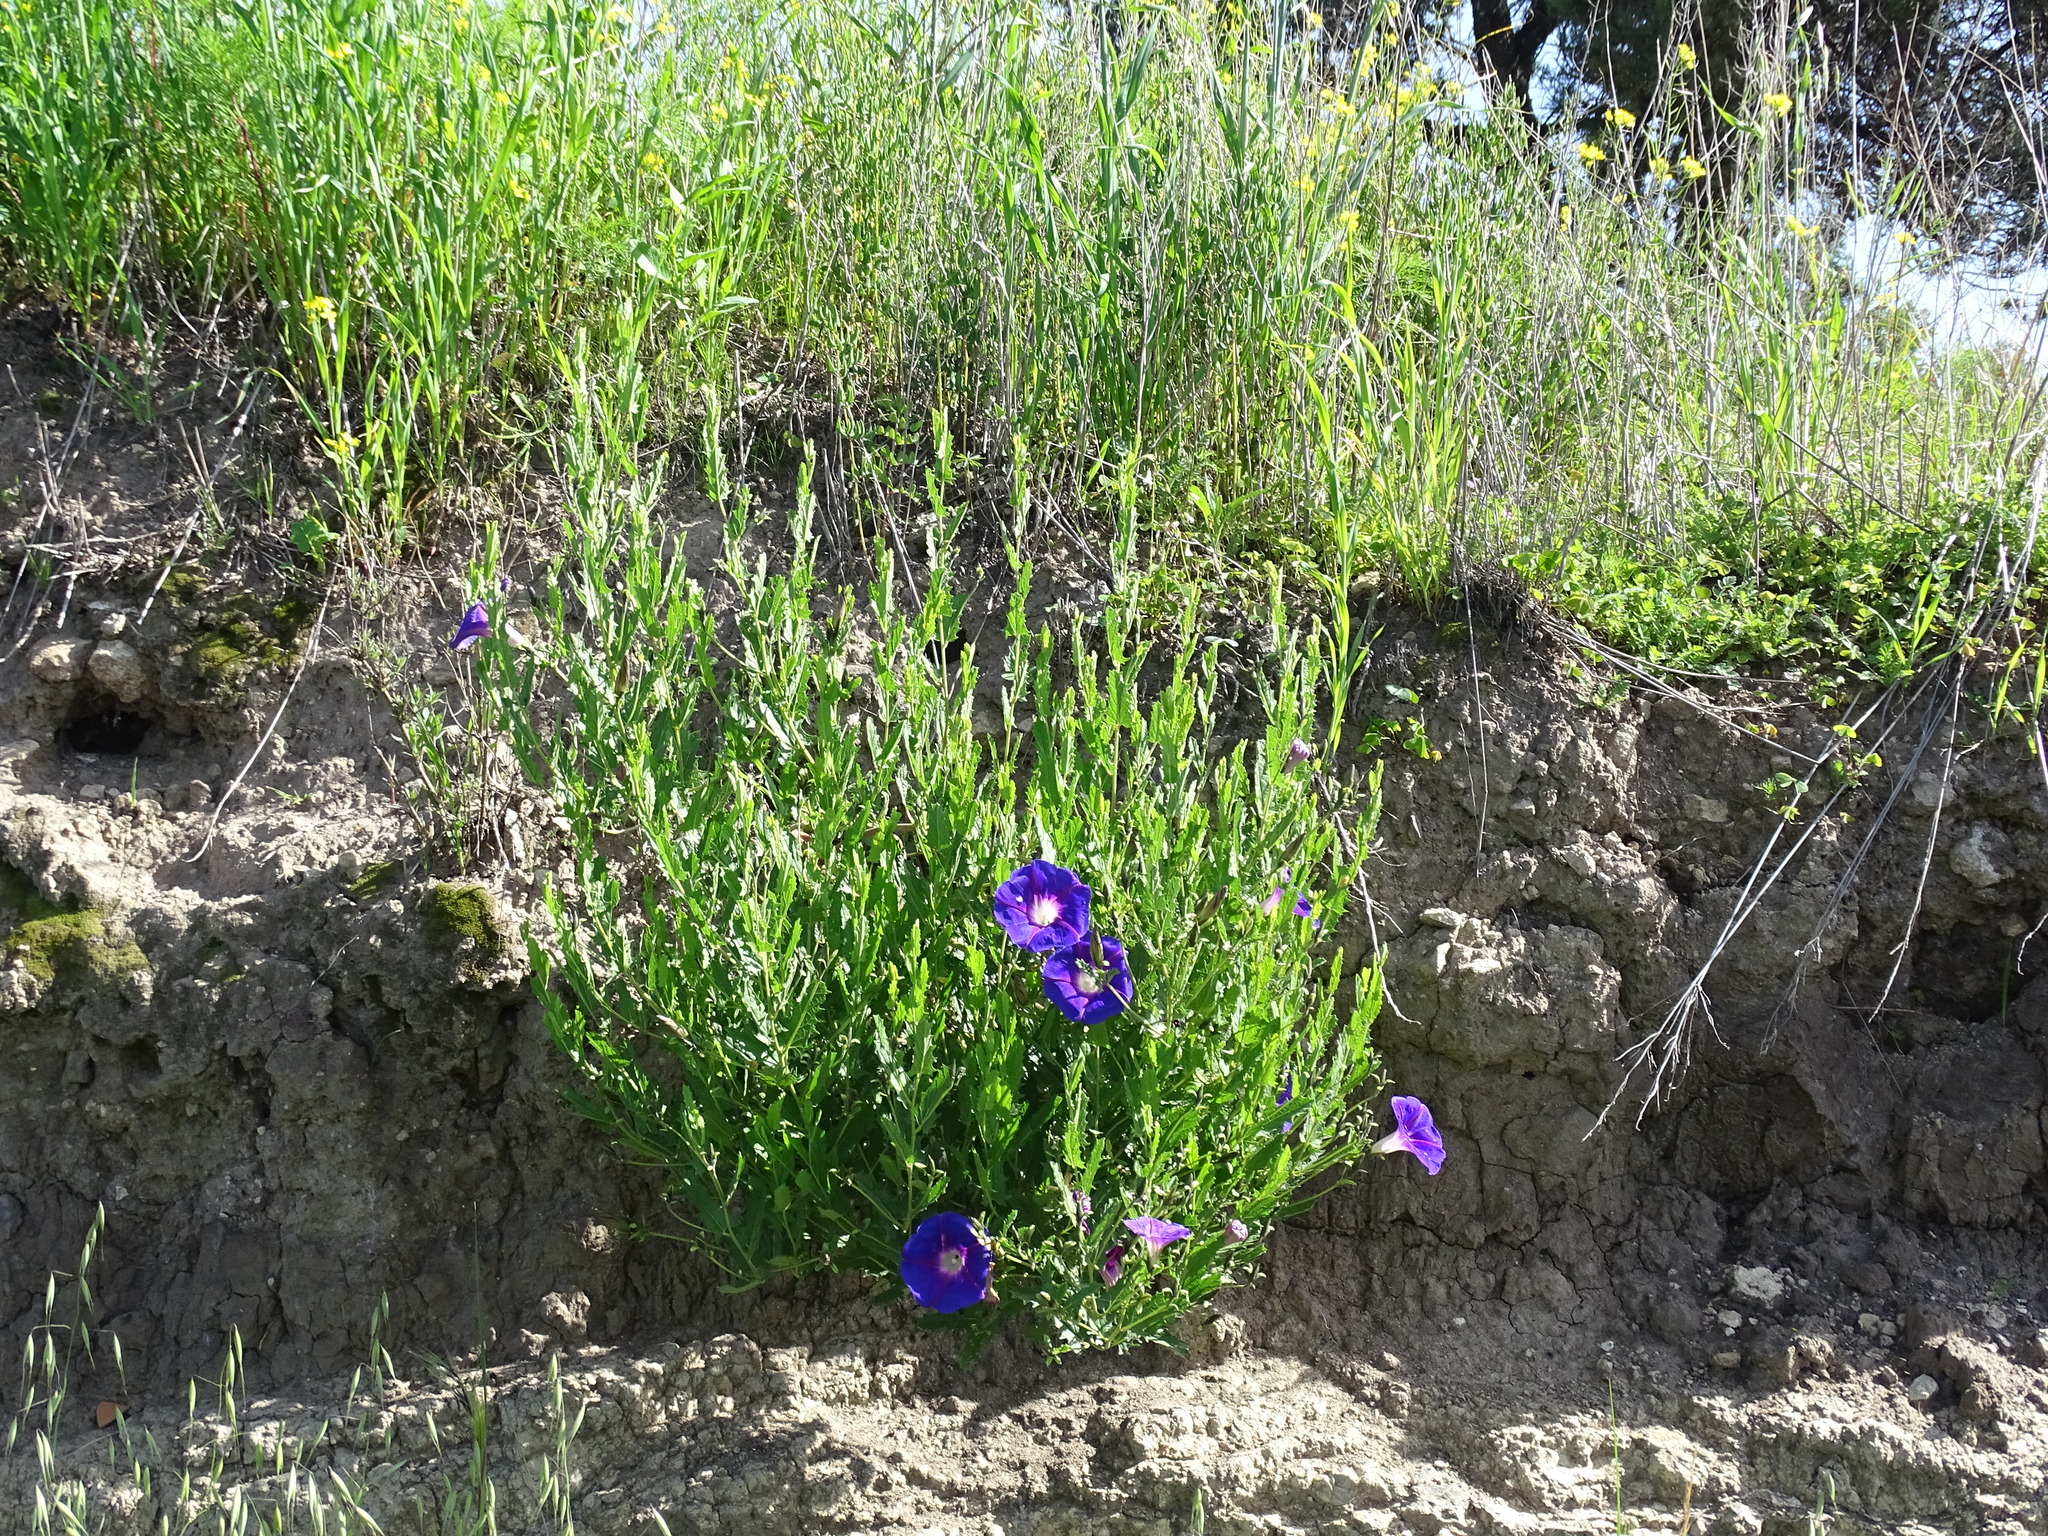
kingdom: Plantae
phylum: Tracheophyta
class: Magnoliopsida
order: Solanales
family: Convolvulaceae
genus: Ipomoea
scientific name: Ipomoea stans
